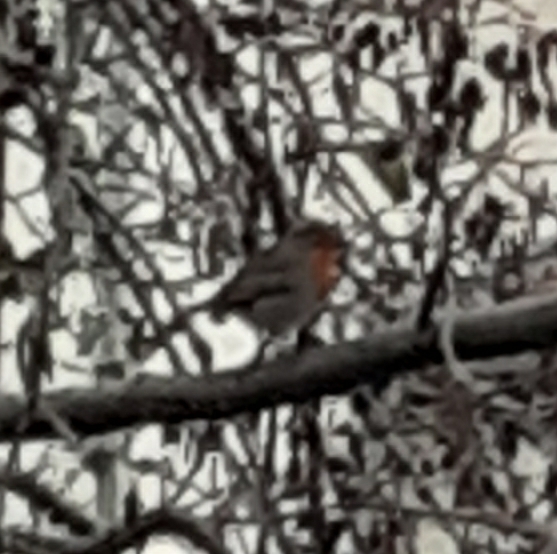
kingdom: Animalia
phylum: Chordata
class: Aves
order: Passeriformes
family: Muscicapidae
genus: Erithacus
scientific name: Erithacus rubecula
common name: European robin
